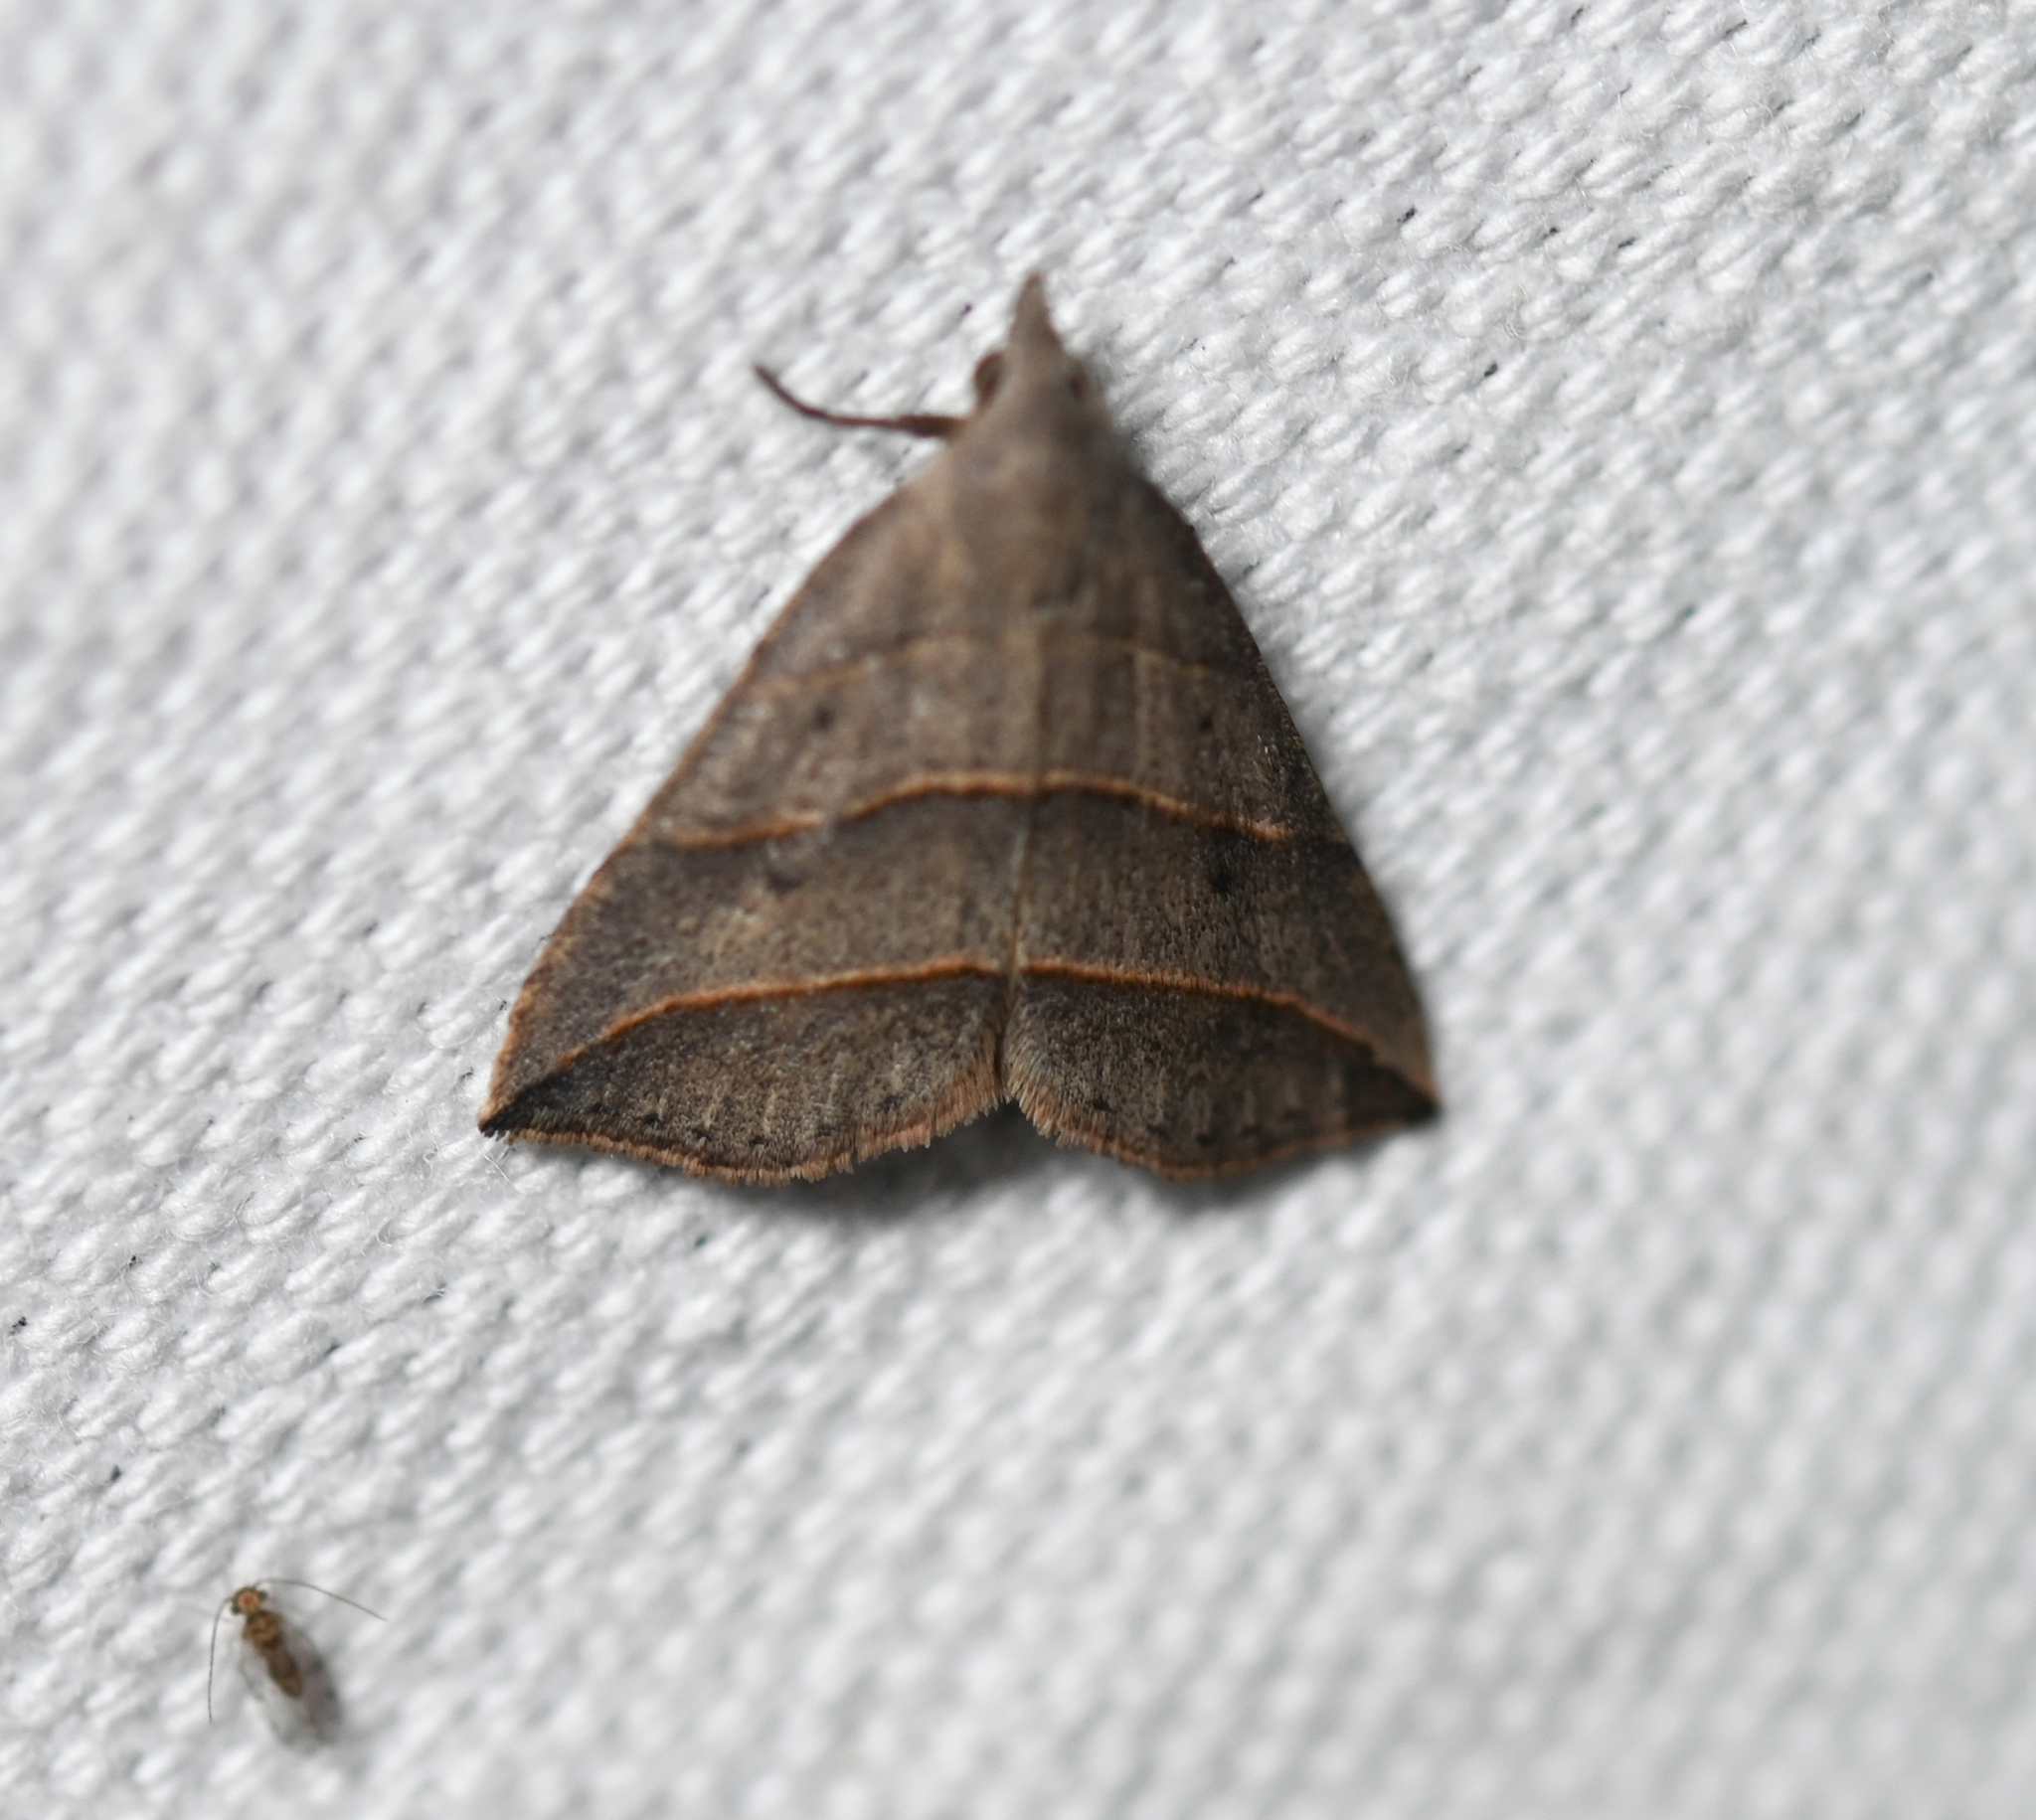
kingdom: Animalia
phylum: Arthropoda
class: Insecta
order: Lepidoptera
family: Erebidae
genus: Colobochyla
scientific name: Colobochyla interpuncta
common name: Yellow-lined owlet
